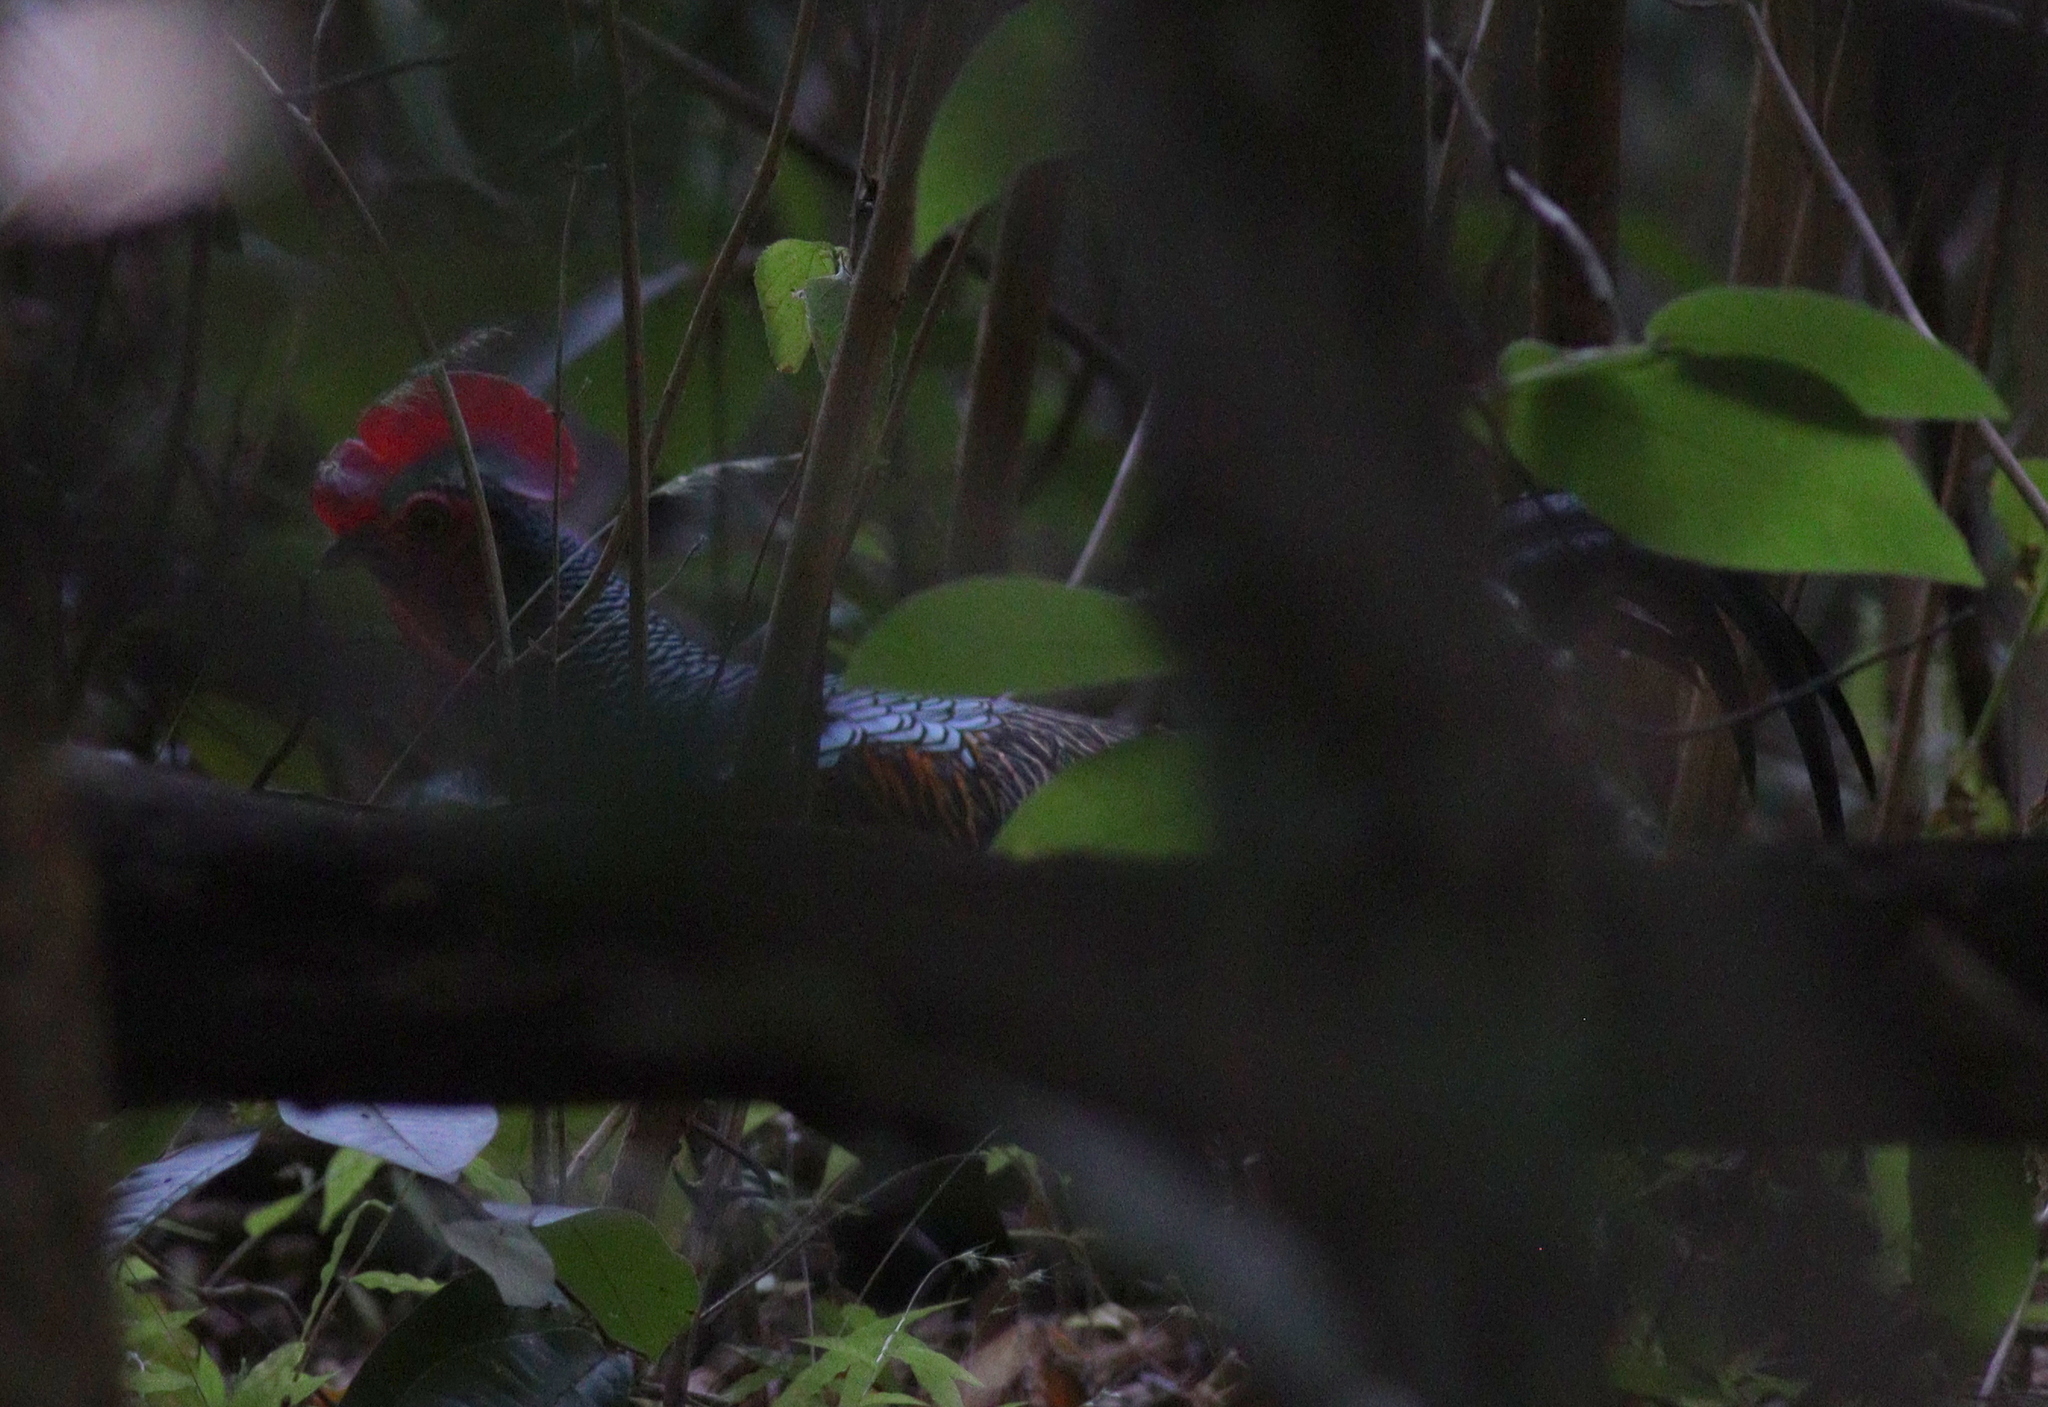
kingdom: Animalia
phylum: Chordata
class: Aves
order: Galliformes
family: Phasianidae
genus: Gallus
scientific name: Gallus varius
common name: Green junglefowl
